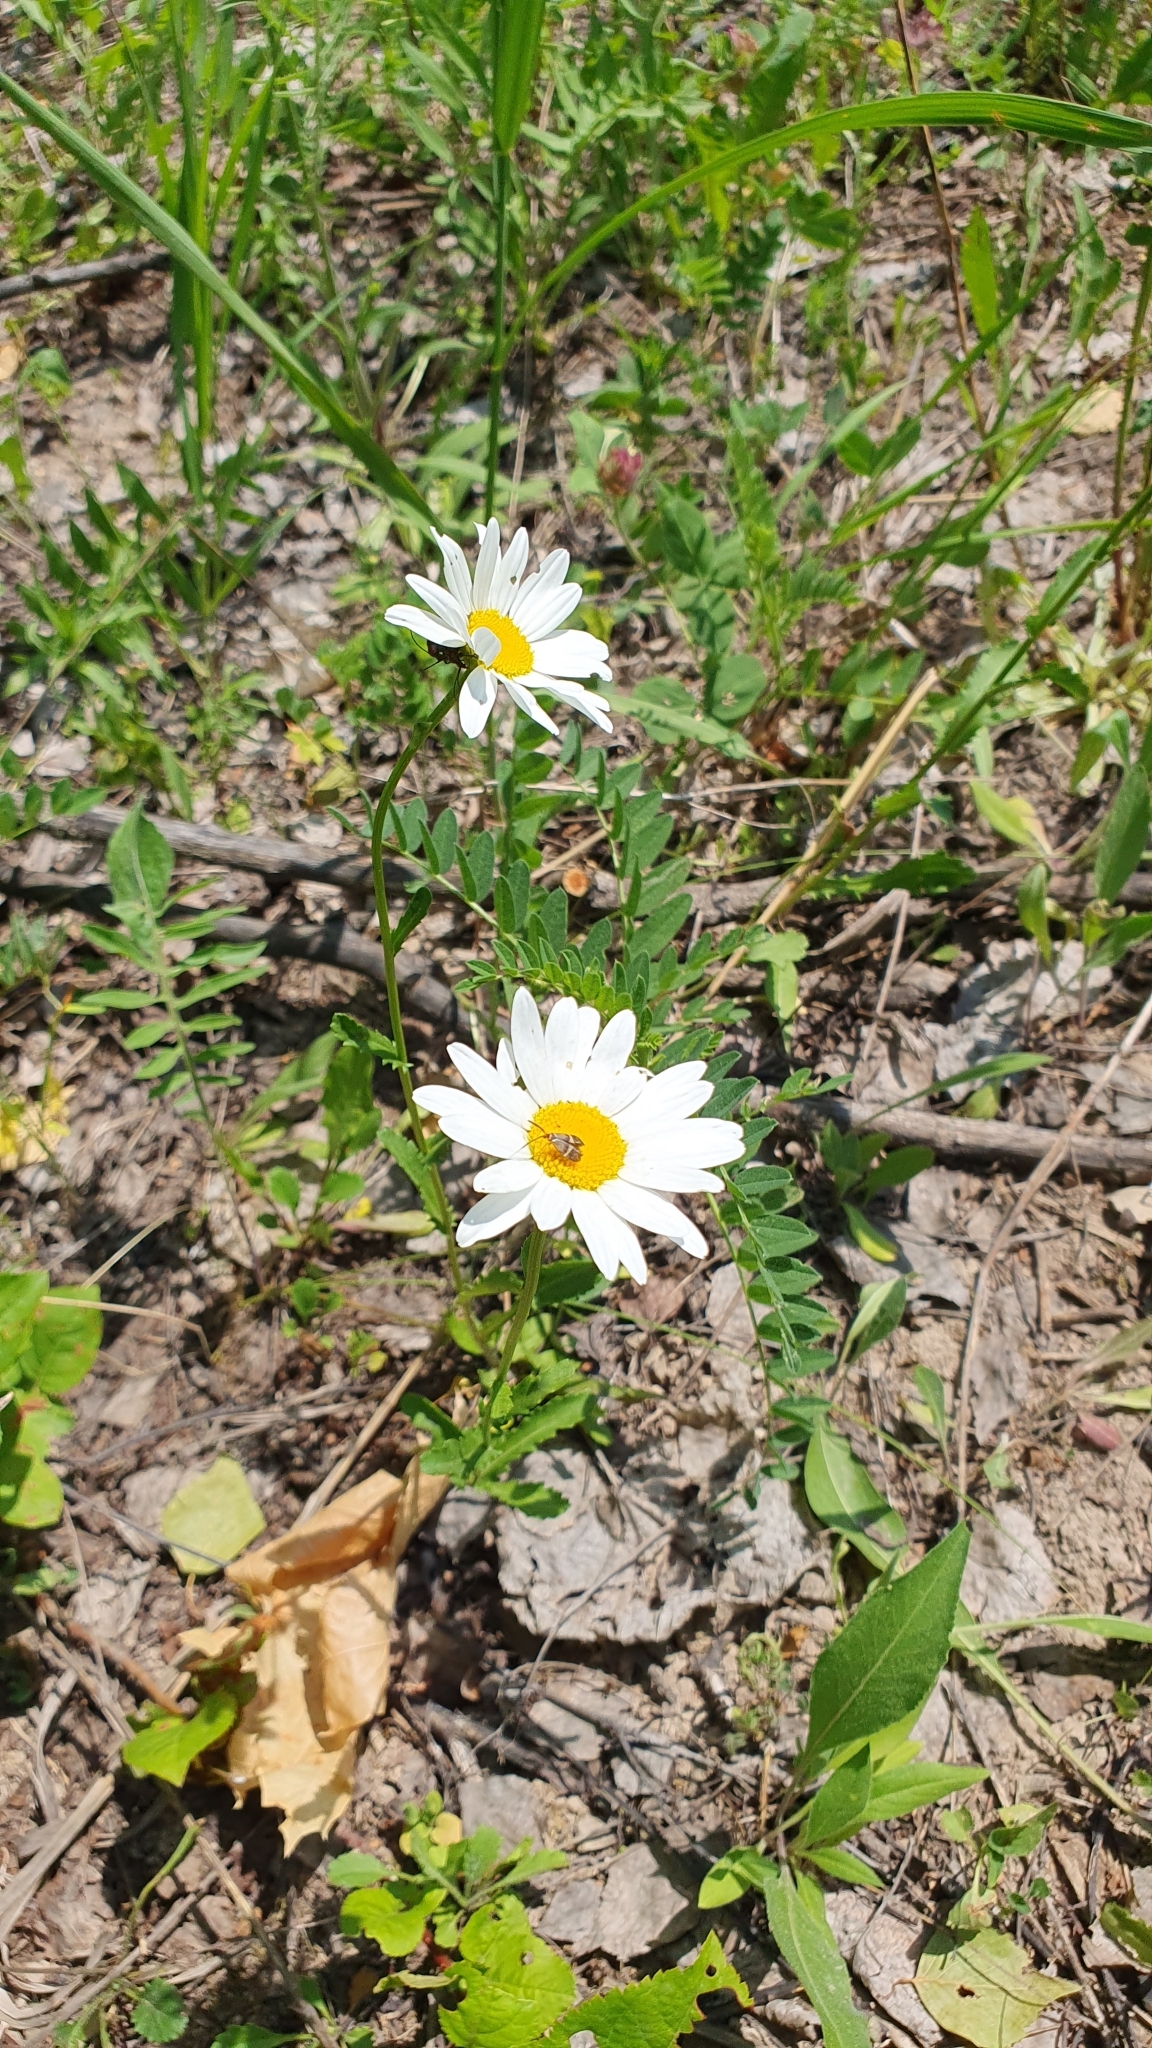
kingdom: Plantae
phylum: Tracheophyta
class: Magnoliopsida
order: Asterales
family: Asteraceae
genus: Leucanthemum
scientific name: Leucanthemum vulgare
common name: Oxeye daisy
